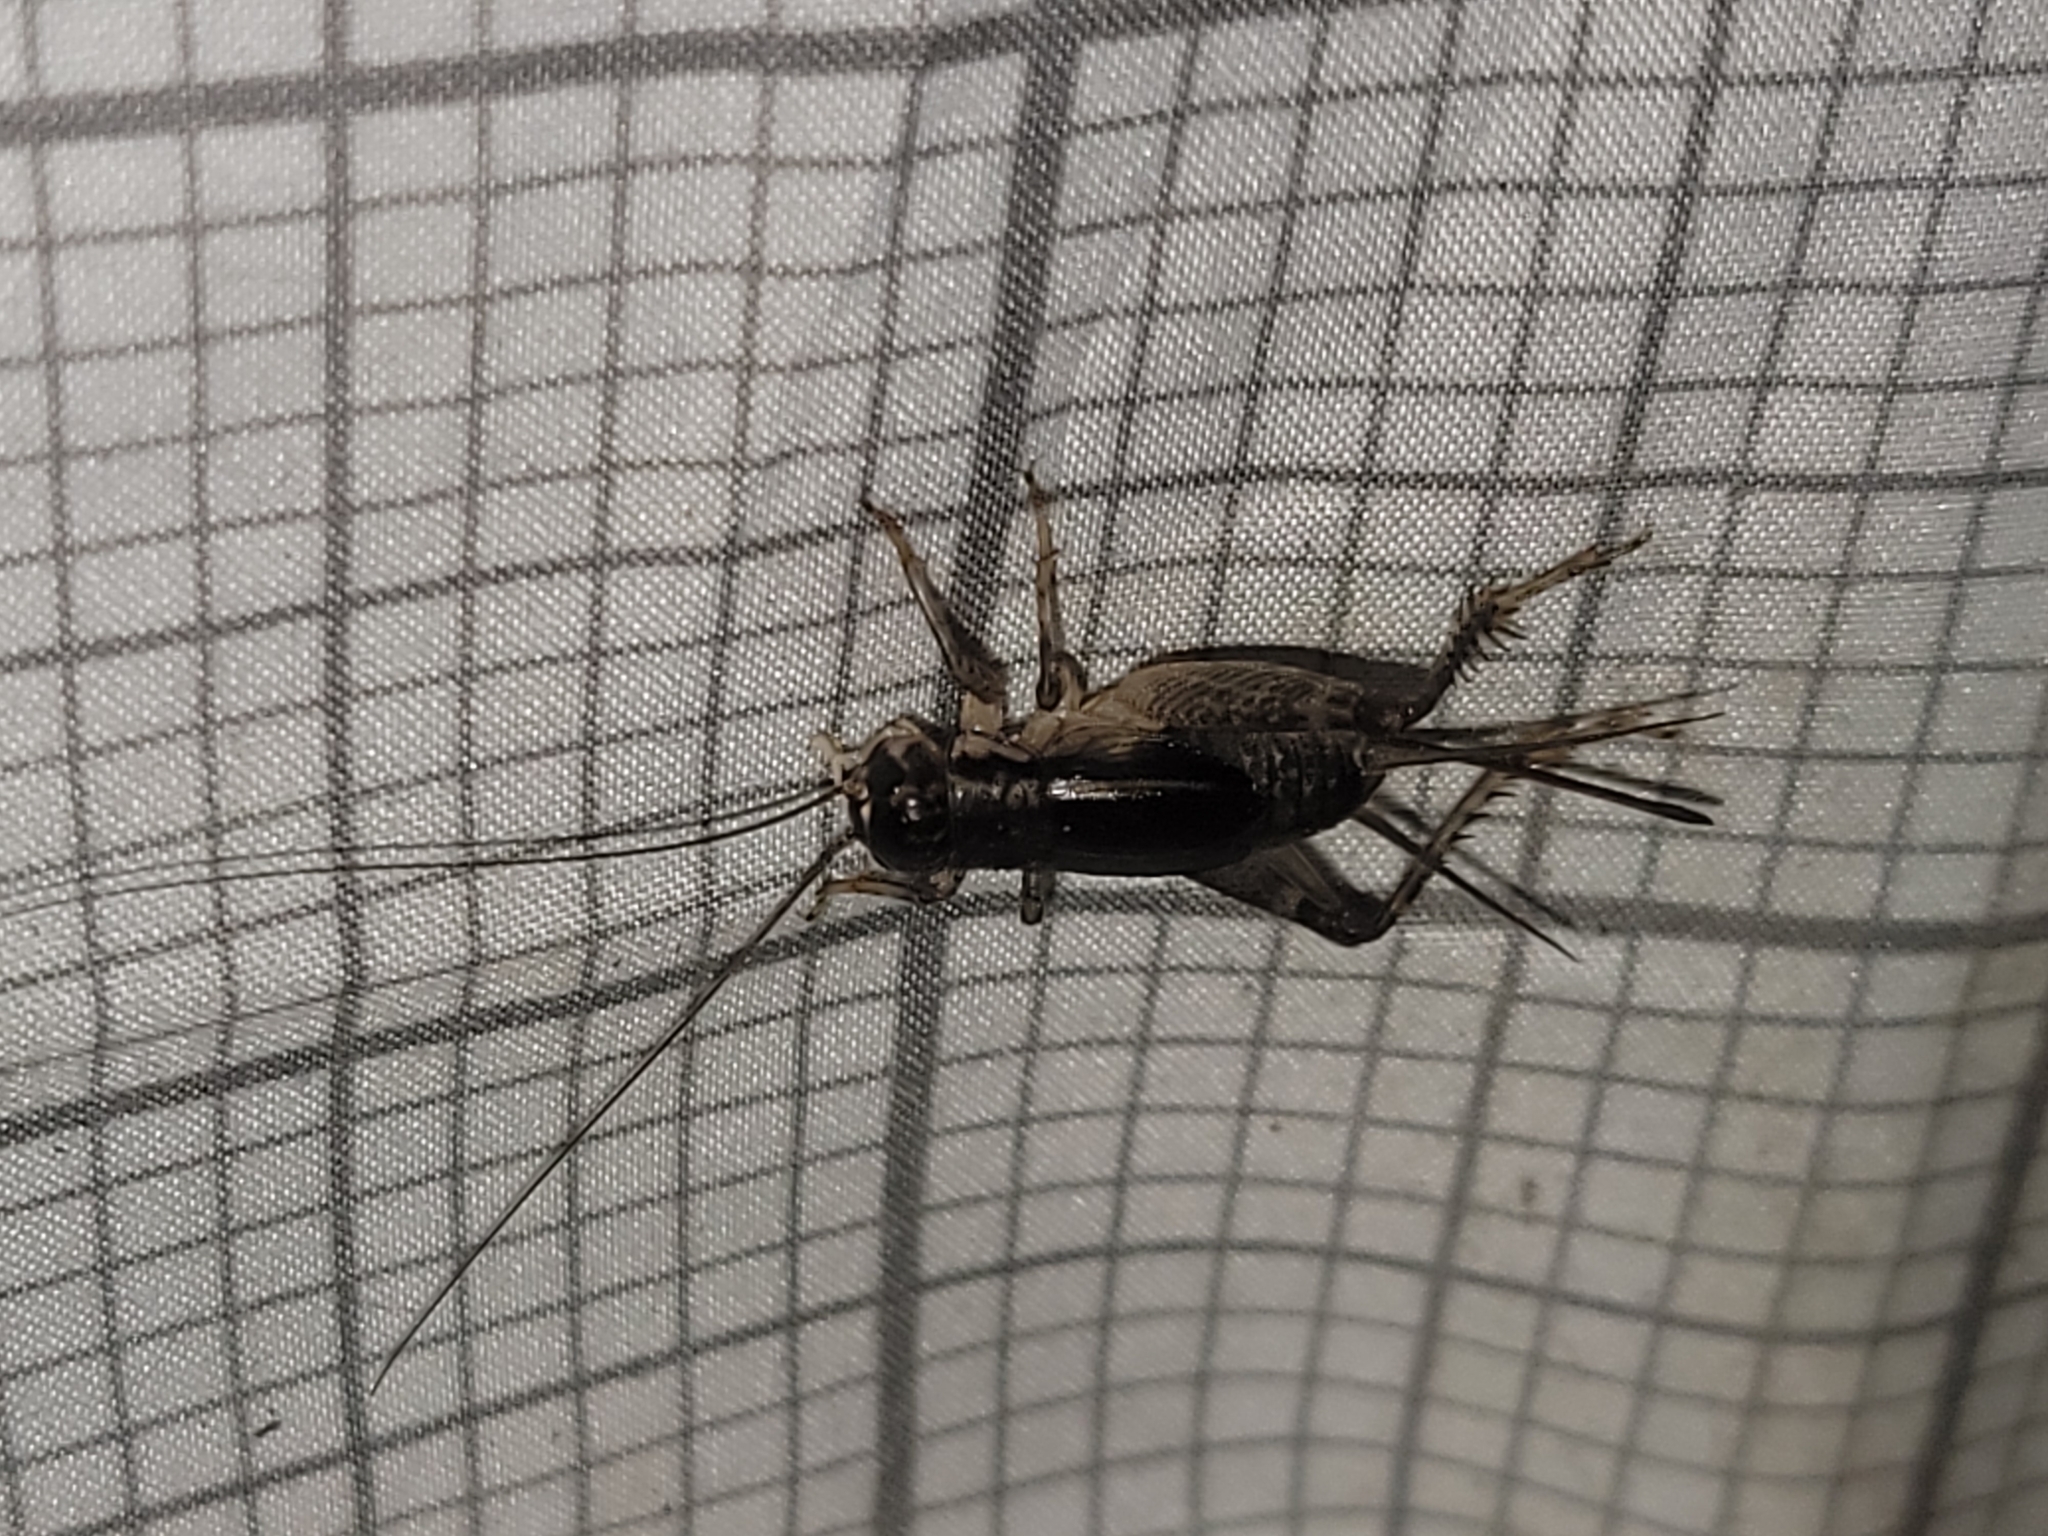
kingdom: Animalia
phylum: Arthropoda
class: Insecta
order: Orthoptera
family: Gryllidae
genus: Velarifictorus
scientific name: Velarifictorus micado
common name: Japanese burrowing cricket
